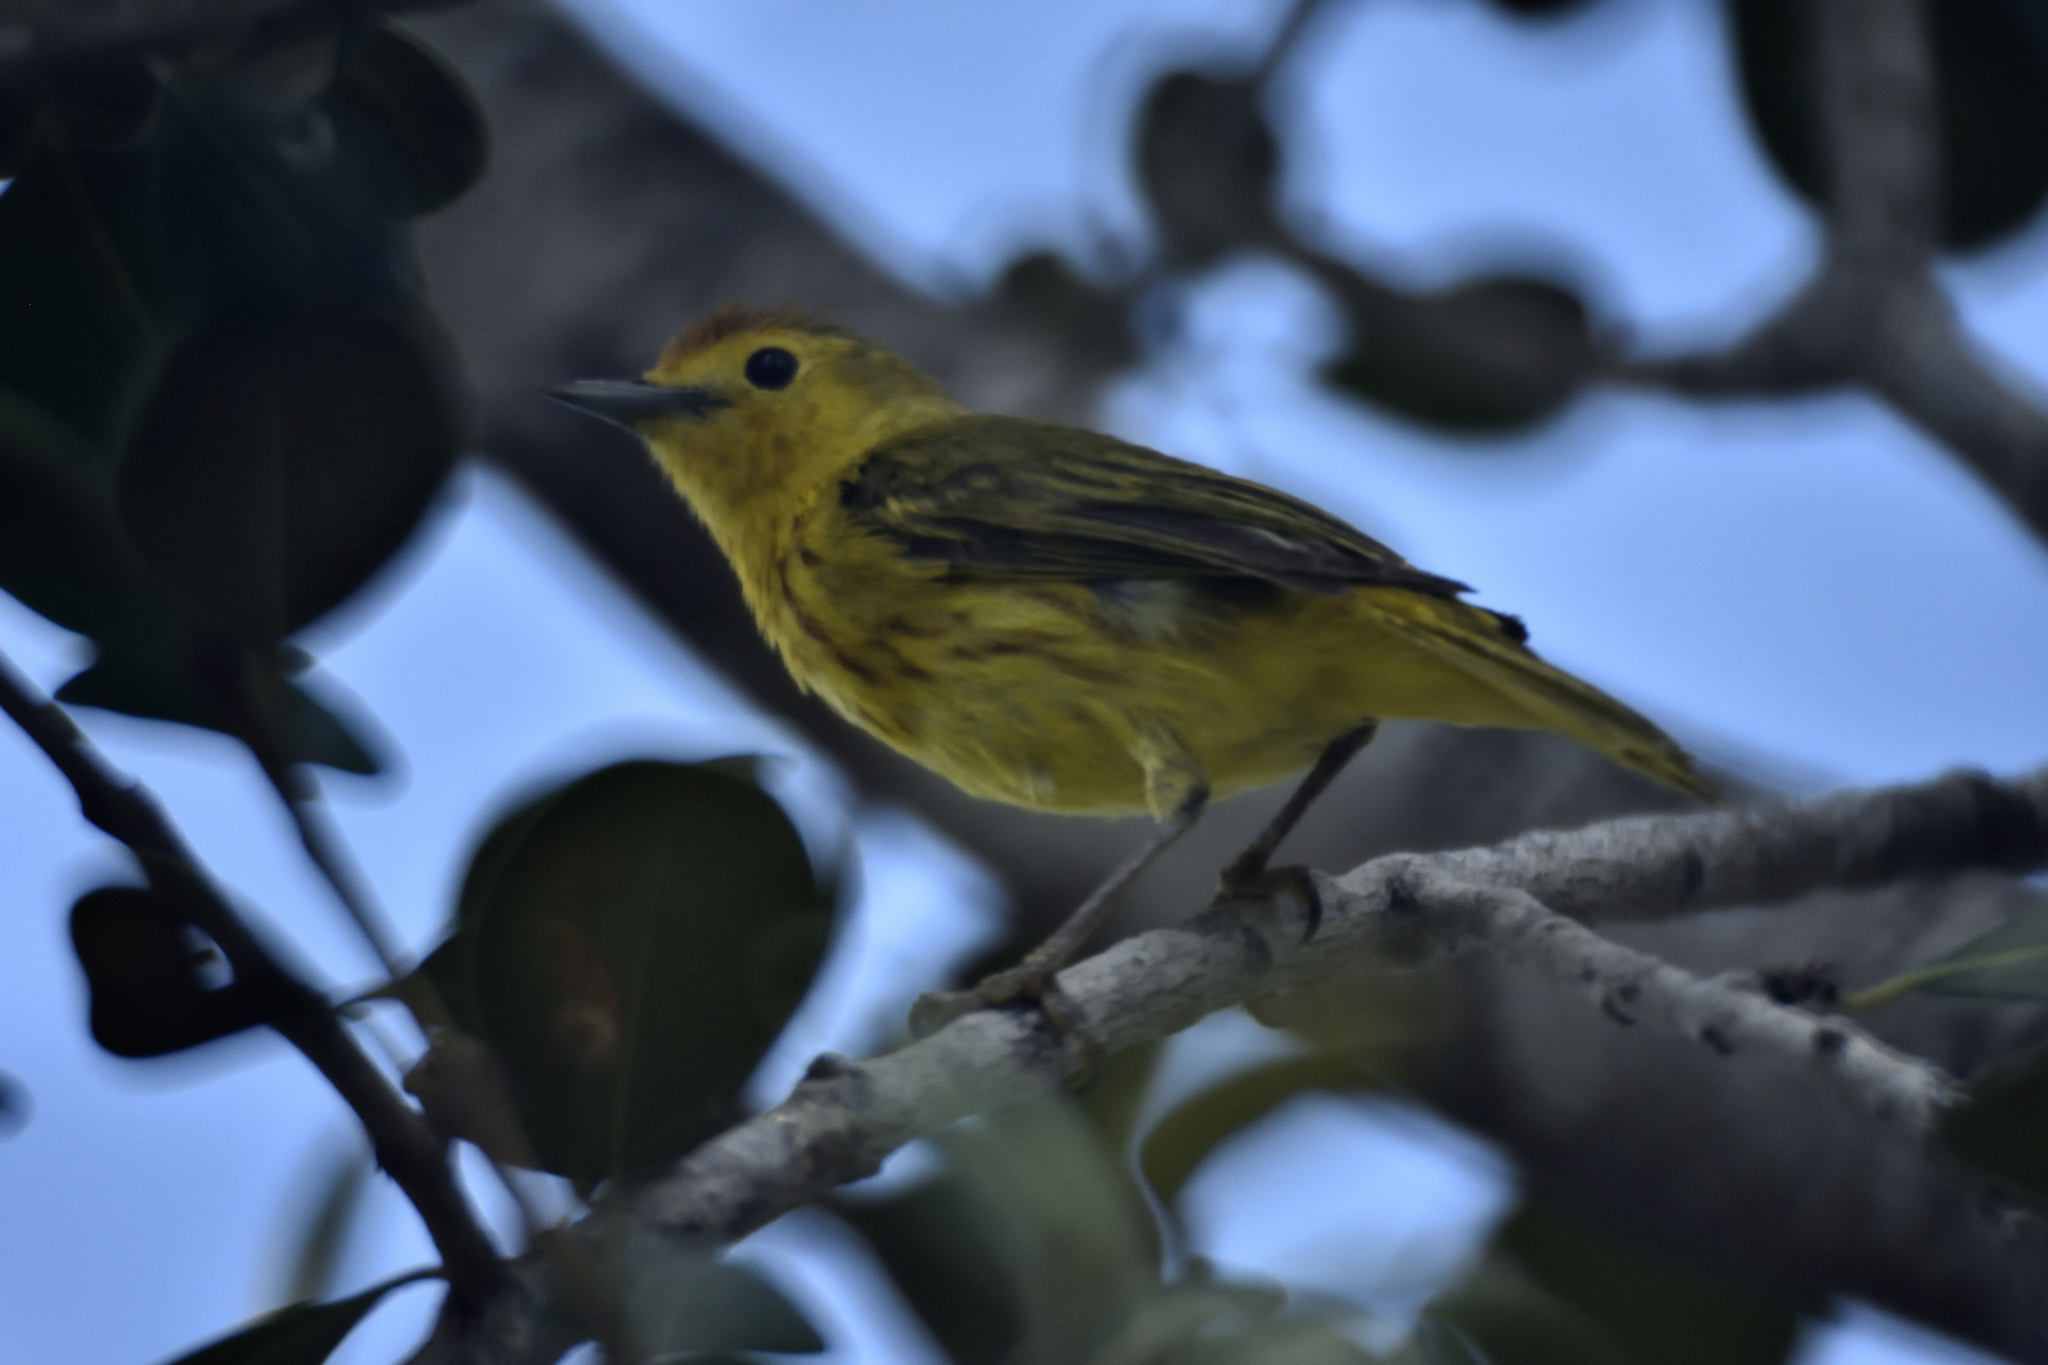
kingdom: Animalia
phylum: Chordata
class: Aves
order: Passeriformes
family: Parulidae
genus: Setophaga
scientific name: Setophaga petechia
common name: Yellow warbler
